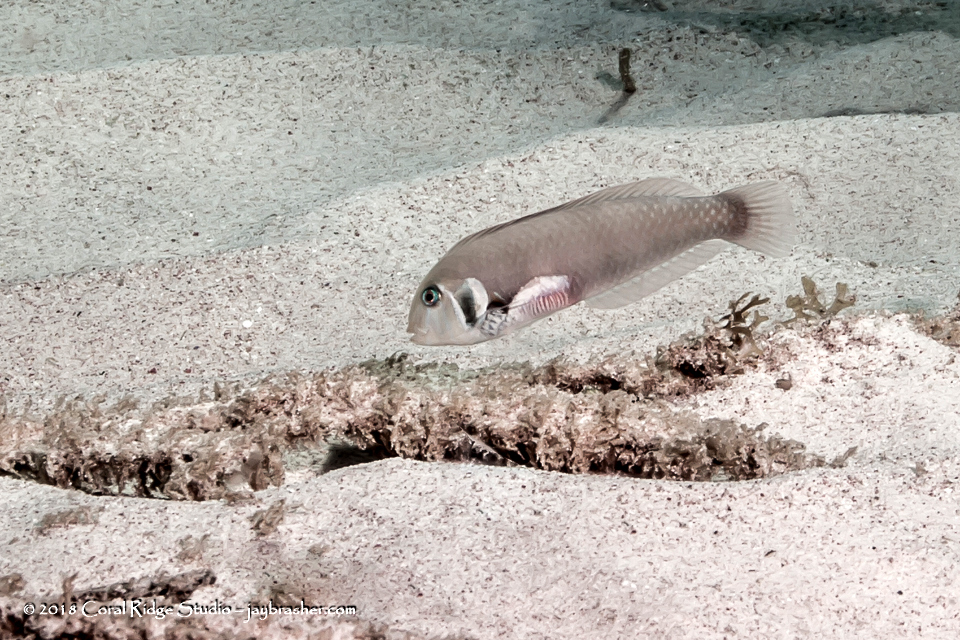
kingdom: Animalia
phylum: Chordata
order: Perciformes
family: Labridae
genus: Xyrichtys
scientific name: Xyrichtys martinicensis
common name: Rosy razorfish
